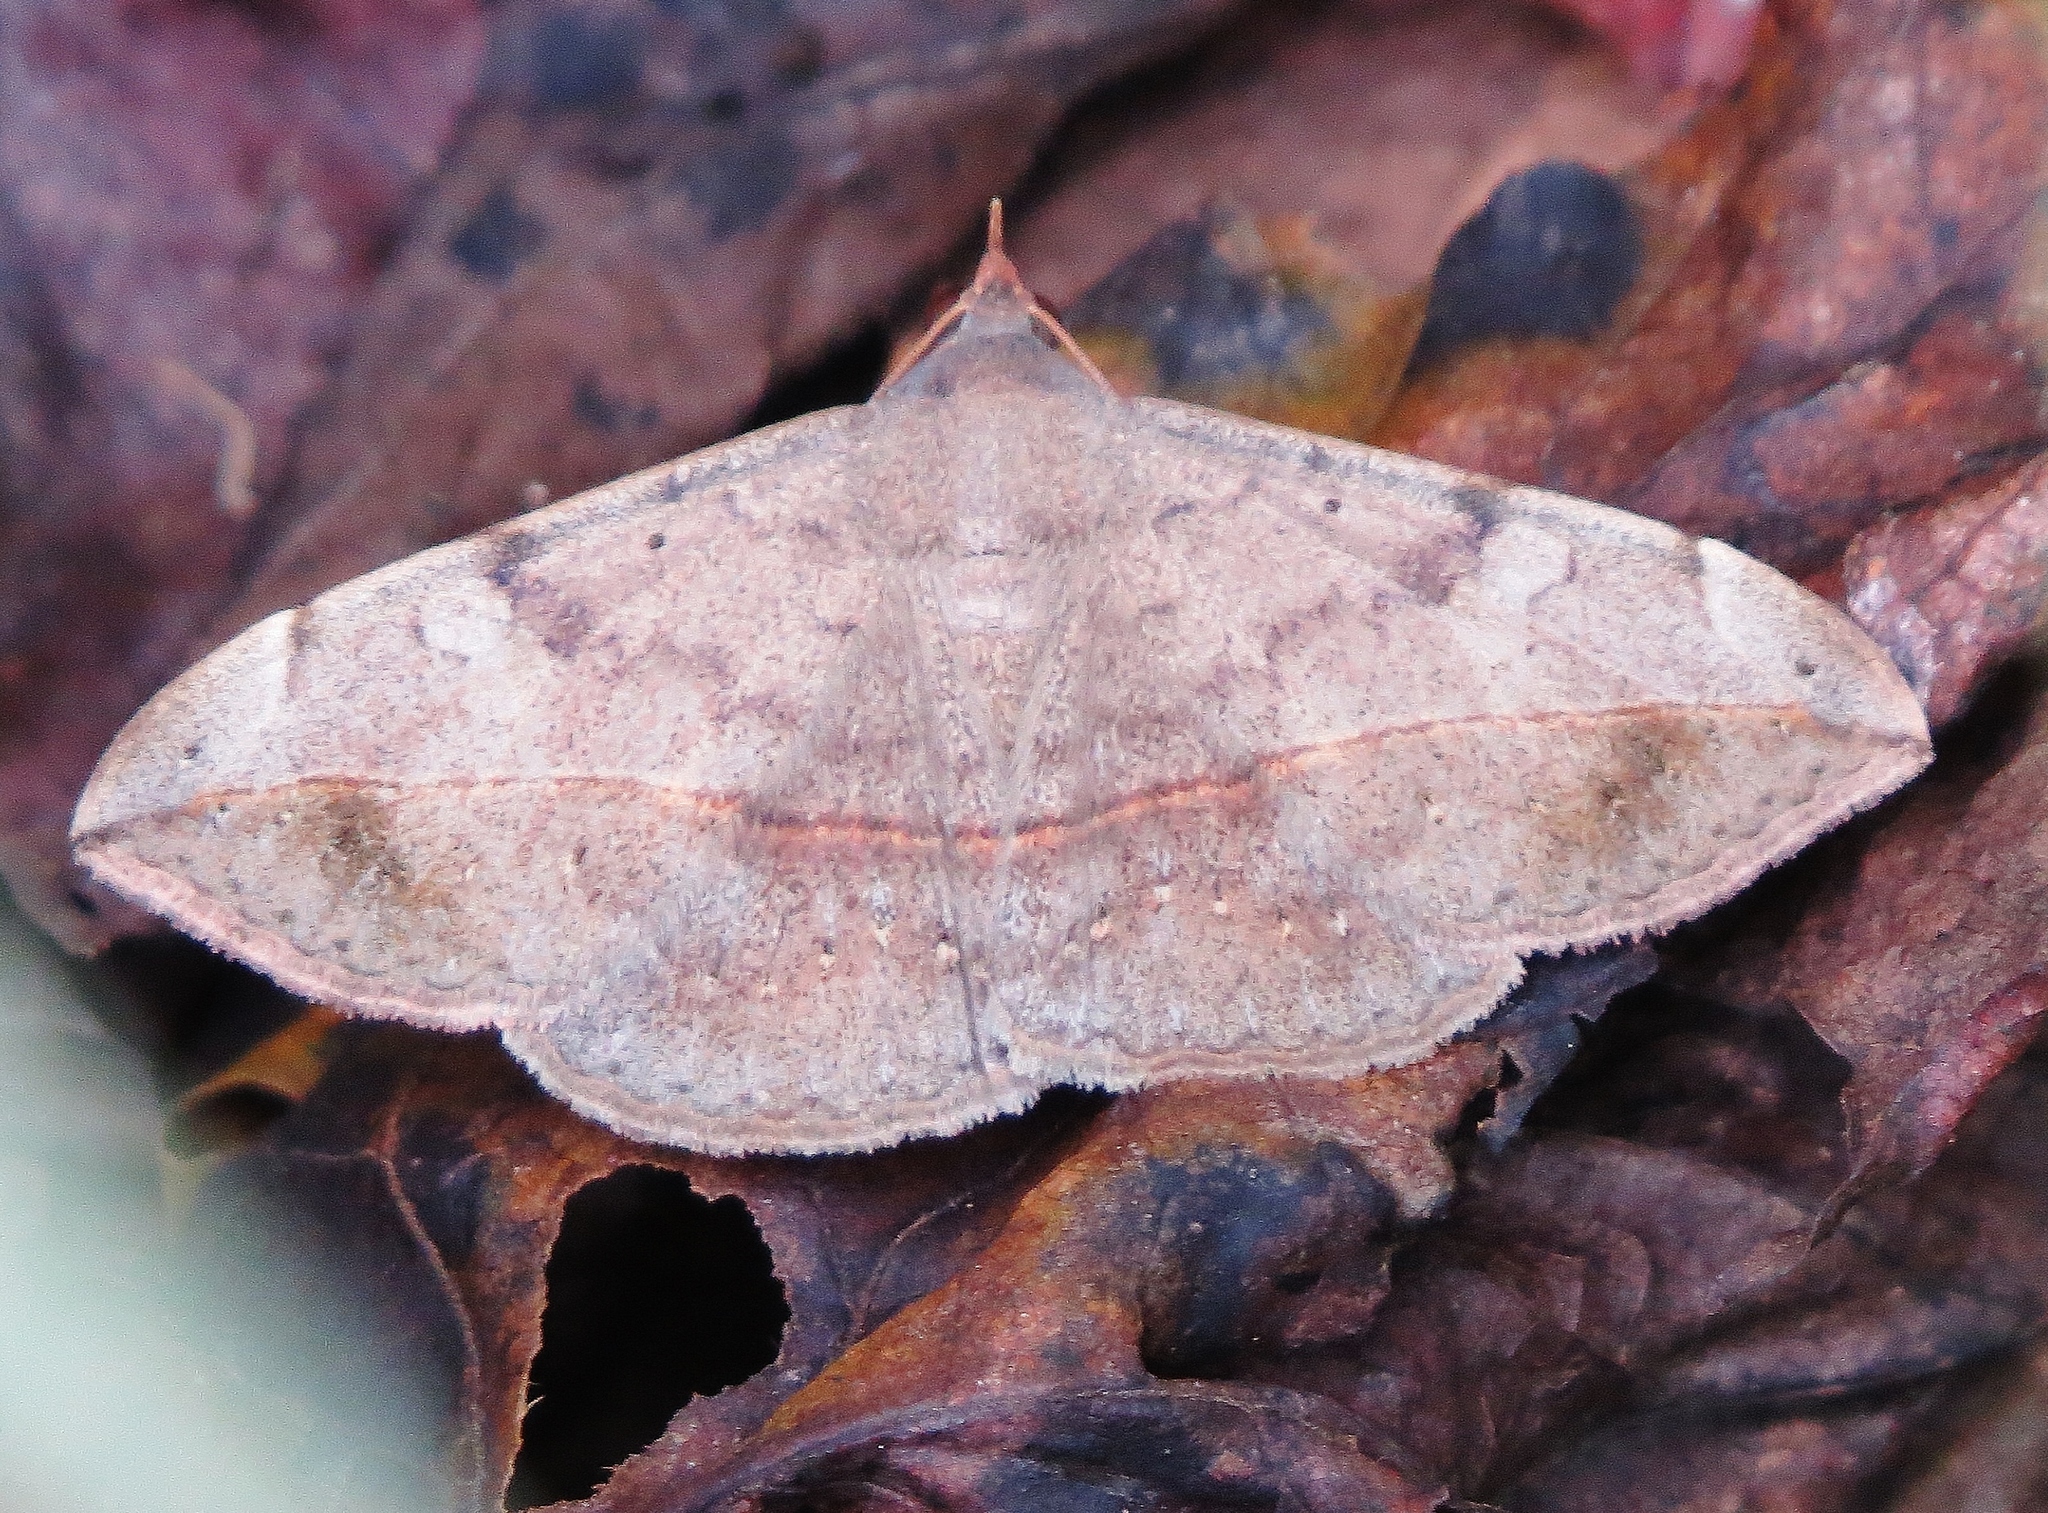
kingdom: Animalia
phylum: Arthropoda
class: Insecta
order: Lepidoptera
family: Erebidae
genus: Anticarsia
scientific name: Anticarsia gemmatalis
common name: Cutworm moth
